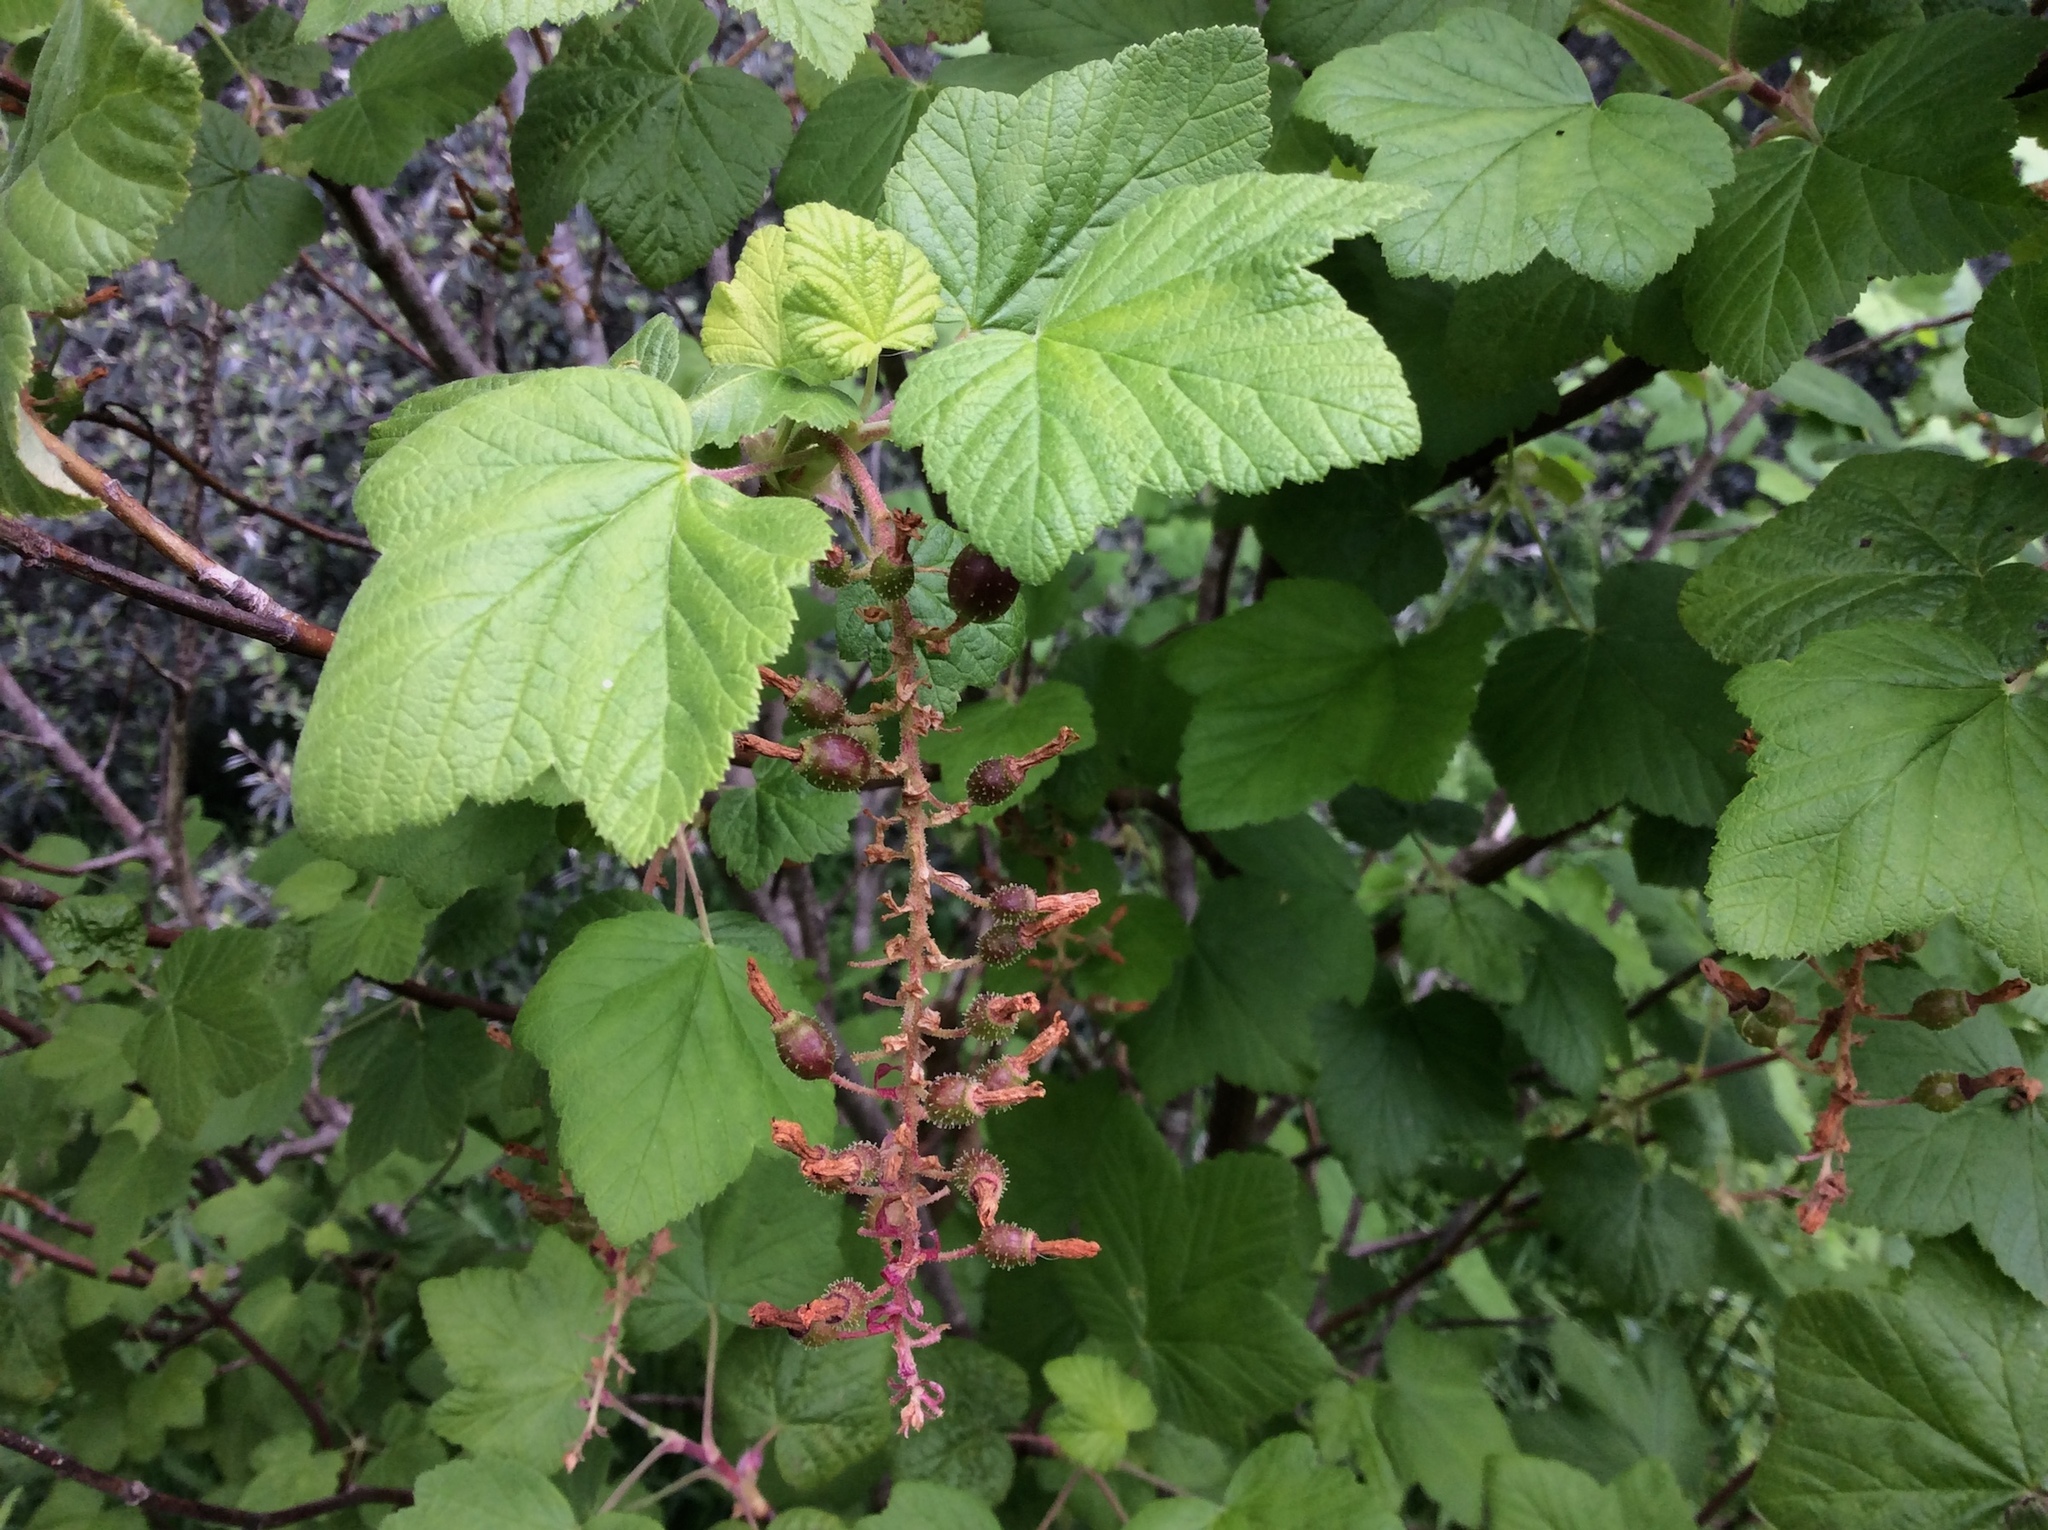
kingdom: Plantae
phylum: Tracheophyta
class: Magnoliopsida
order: Saxifragales
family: Grossulariaceae
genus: Ribes
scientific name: Ribes sanguineum
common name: Flowering currant
